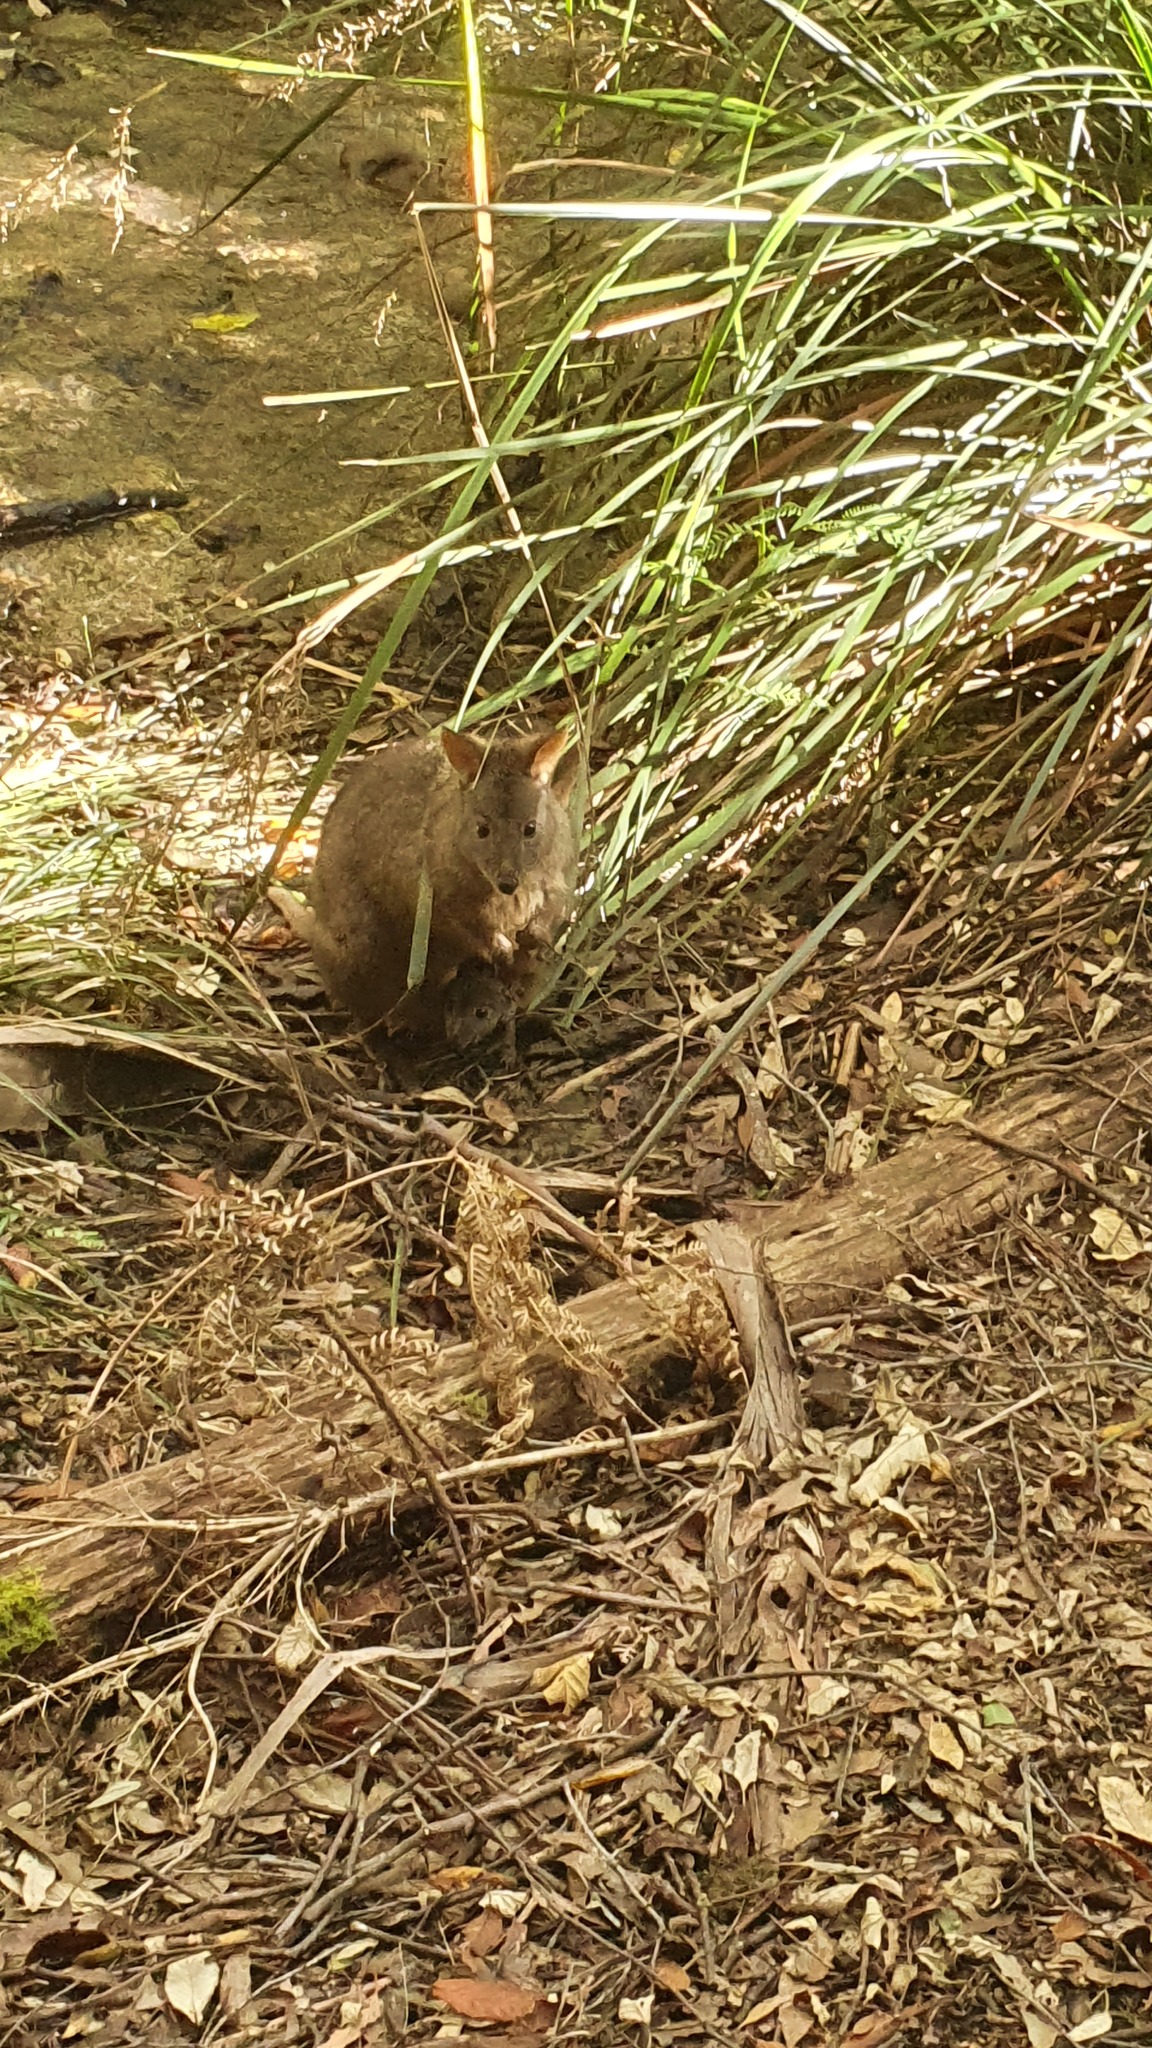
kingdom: Animalia
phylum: Chordata
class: Mammalia
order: Diprotodontia
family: Macropodidae
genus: Thylogale
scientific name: Thylogale billardierii
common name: Tasmanian pademelon
